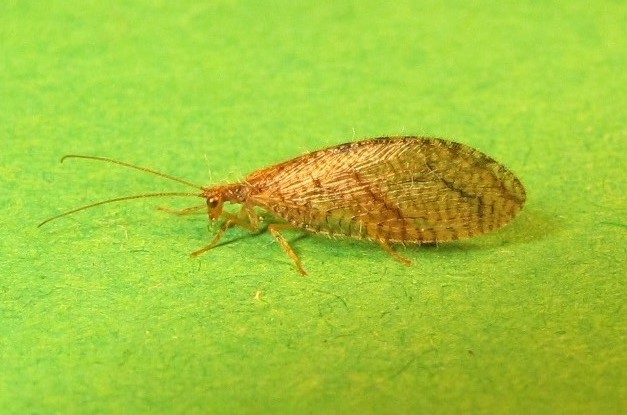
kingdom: Animalia
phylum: Arthropoda
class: Insecta
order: Neuroptera
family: Hemerobiidae
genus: Micromus
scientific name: Micromus posticus
